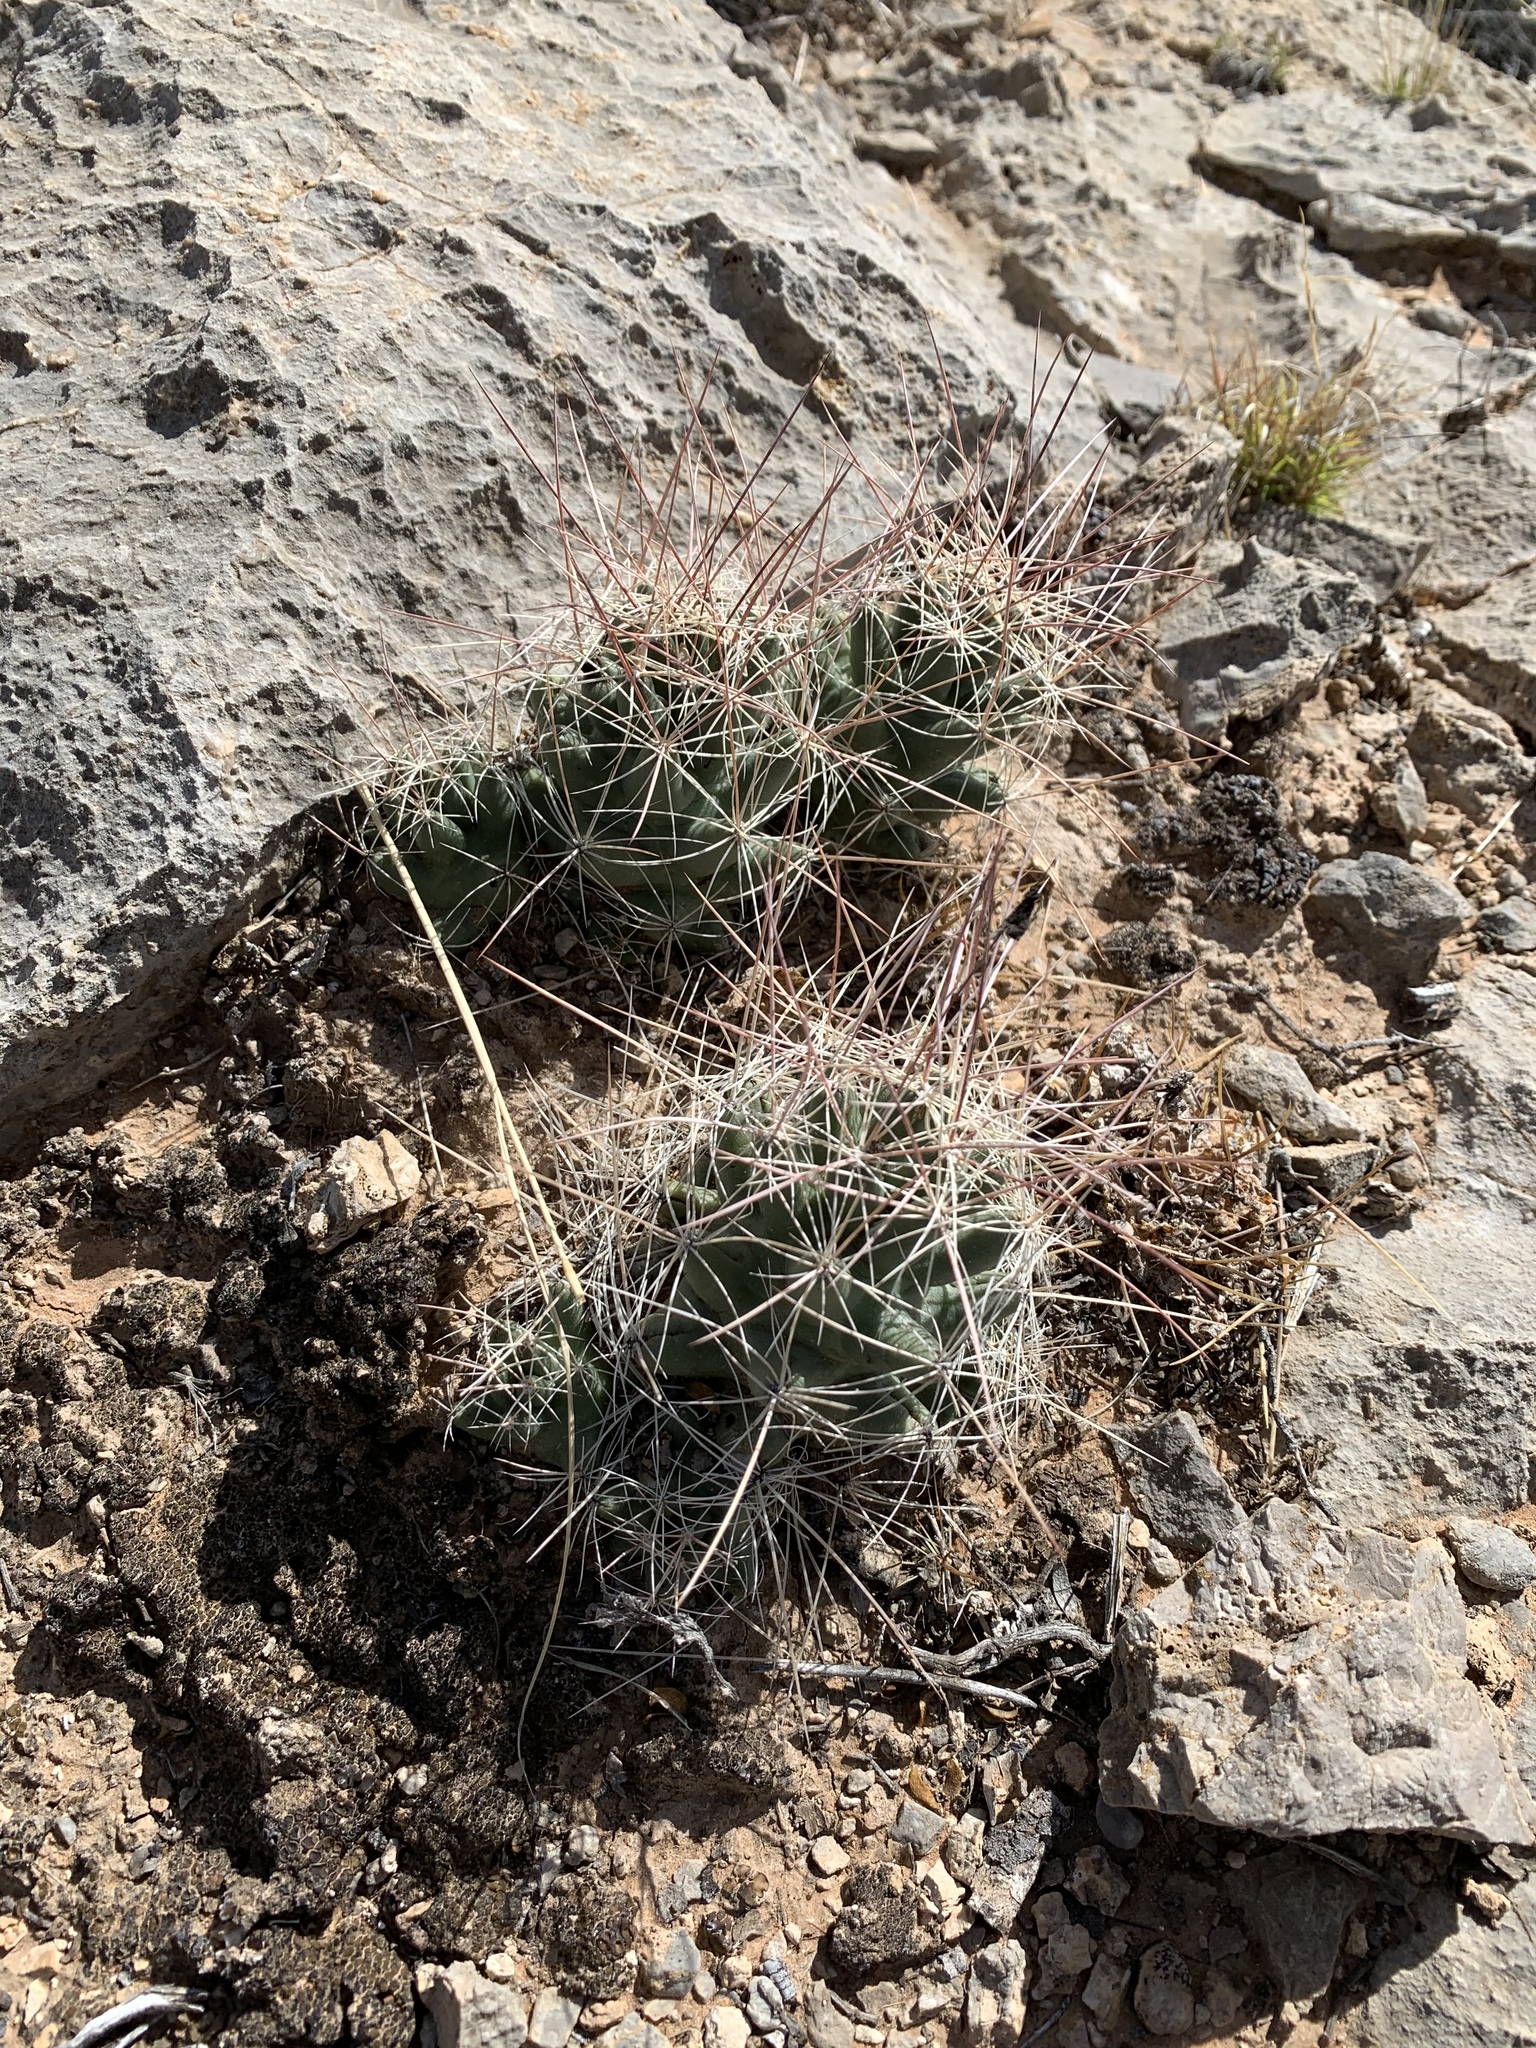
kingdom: Plantae
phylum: Tracheophyta
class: Magnoliopsida
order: Caryophyllales
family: Cactaceae
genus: Coryphantha
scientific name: Coryphantha macromeris
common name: Nipple beehive cactus
